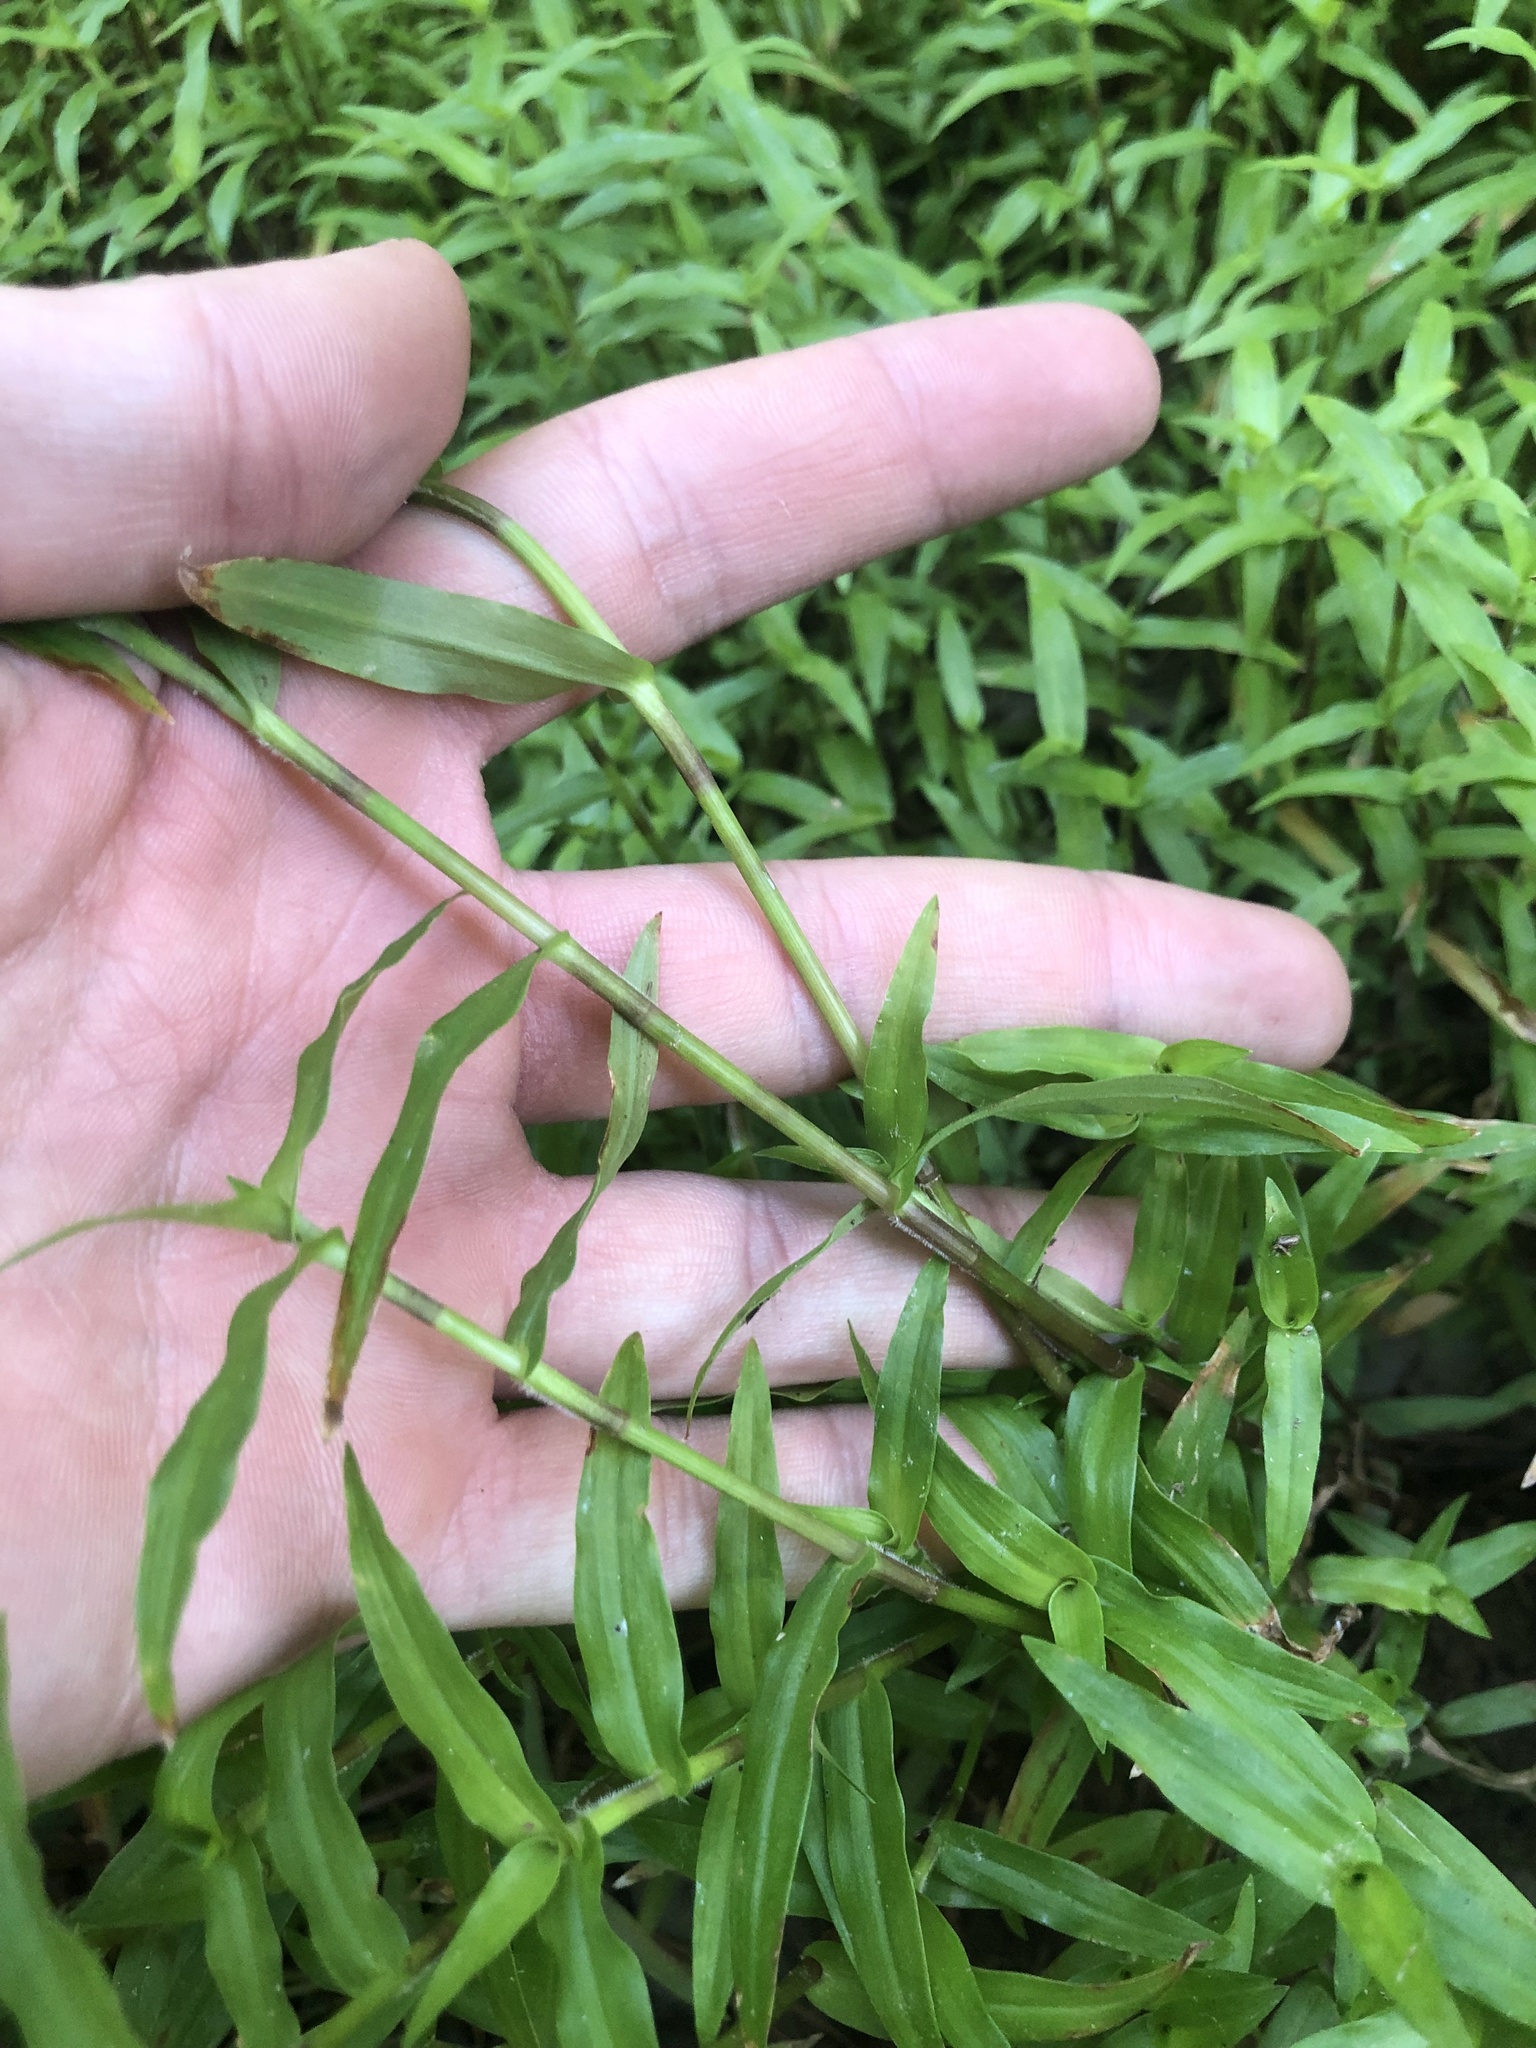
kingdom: Plantae
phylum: Tracheophyta
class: Liliopsida
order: Commelinales
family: Commelinaceae
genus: Murdannia
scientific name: Murdannia keisak
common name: Wartremoving herb
